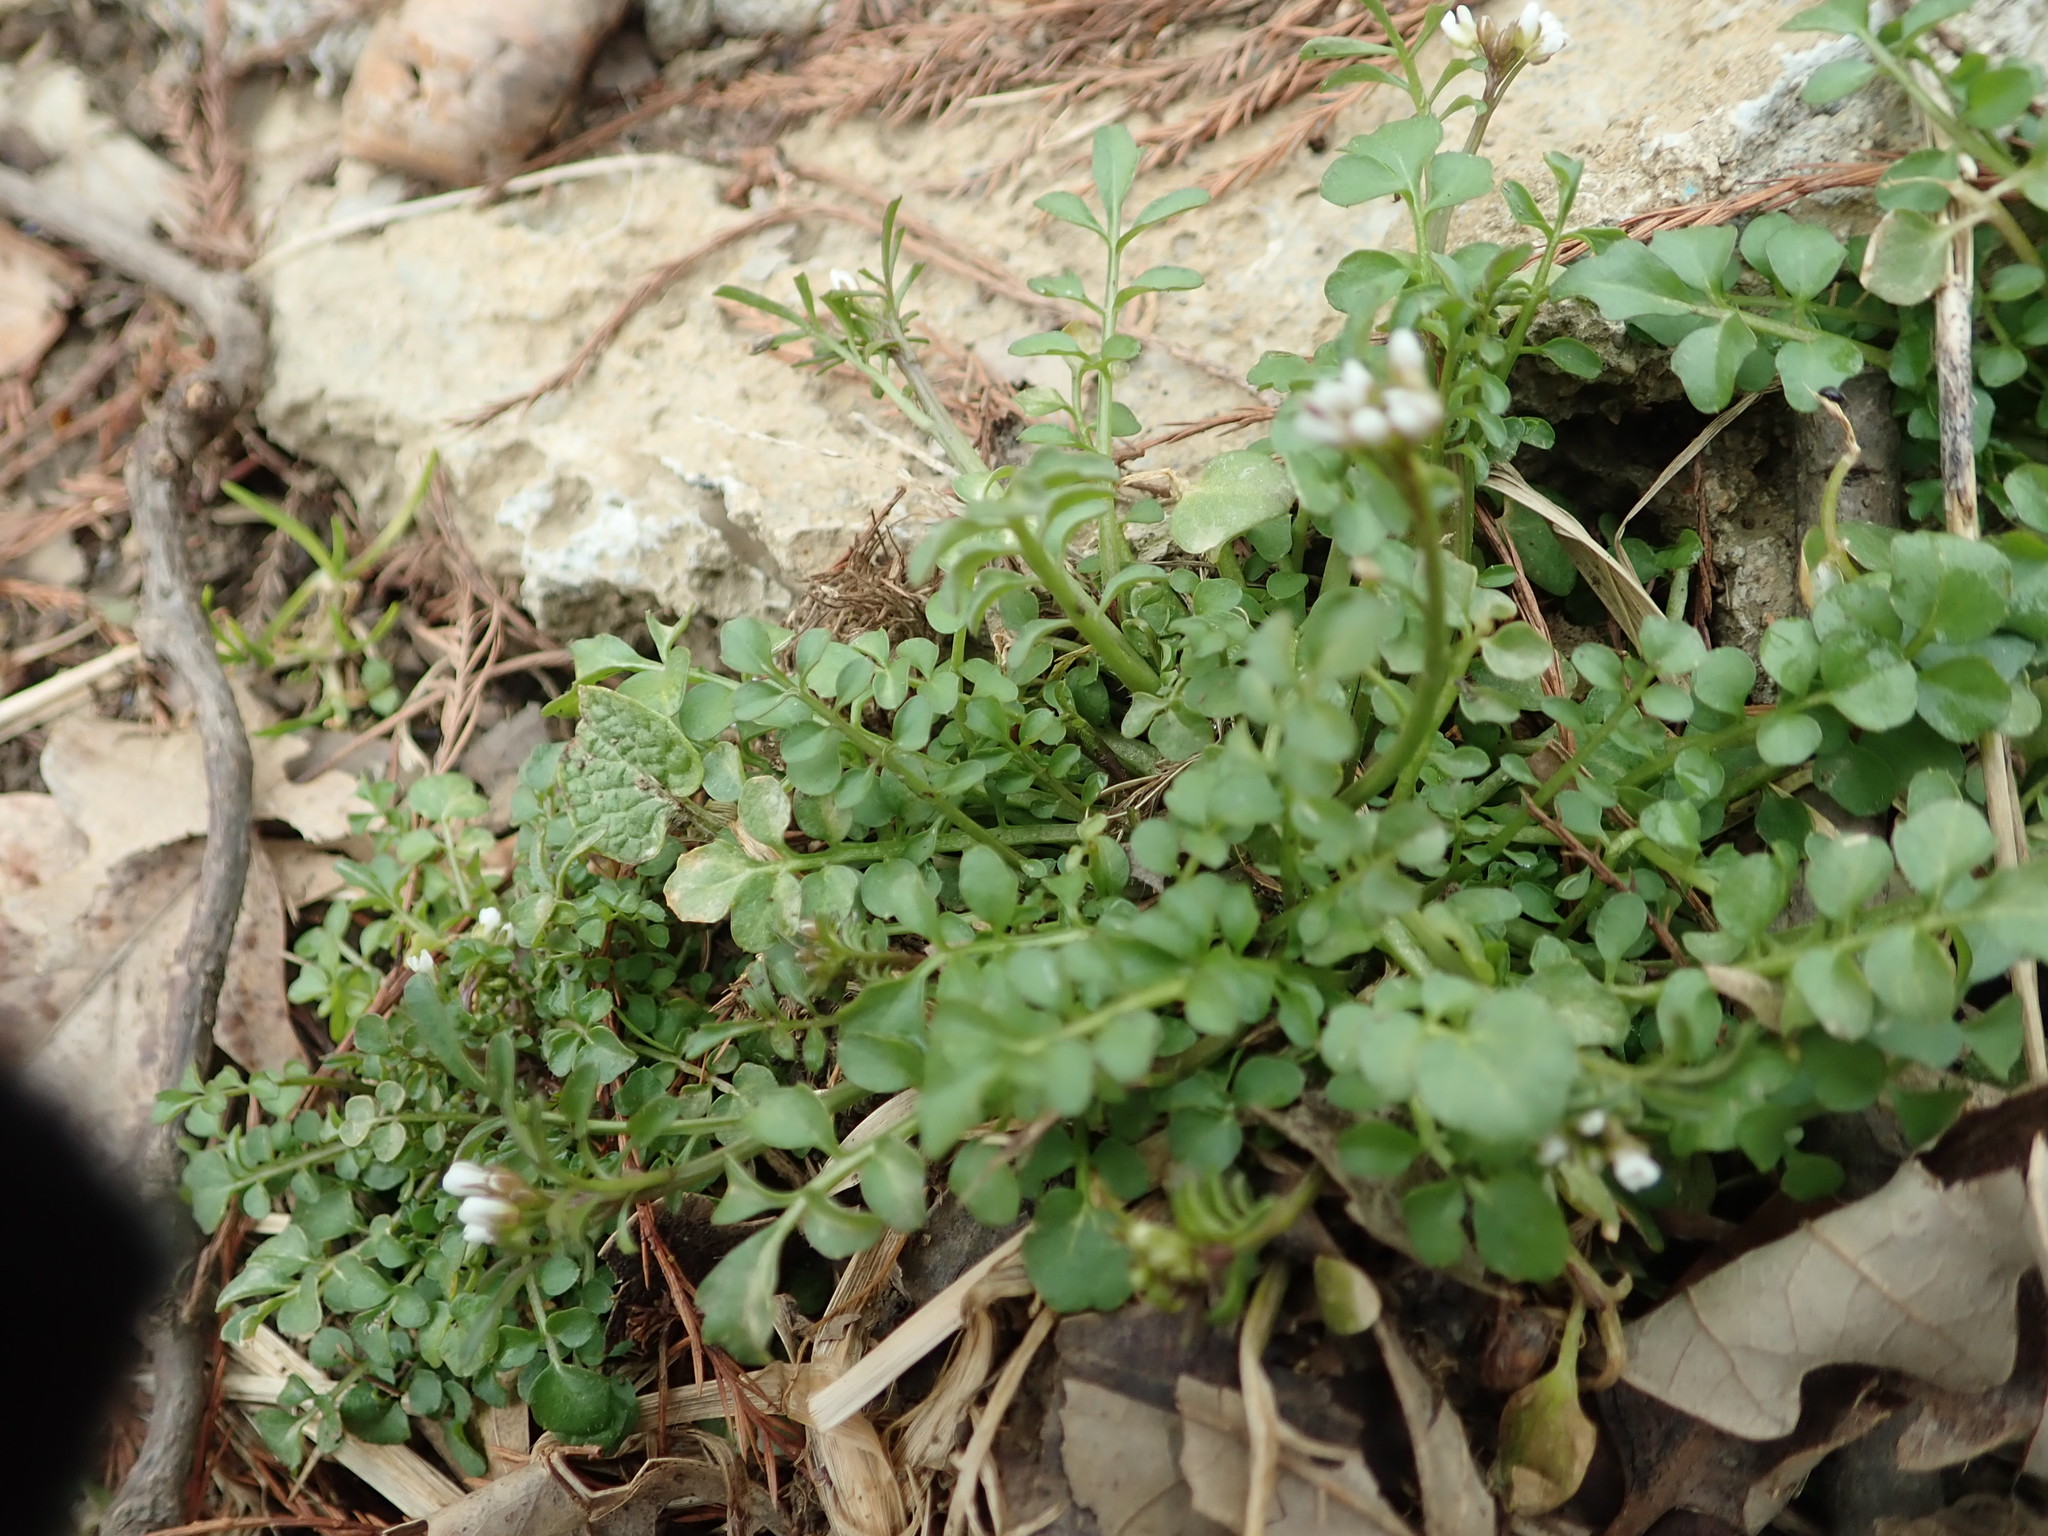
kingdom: Plantae
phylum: Tracheophyta
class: Magnoliopsida
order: Brassicales
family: Brassicaceae
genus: Cardamine
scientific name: Cardamine hirsuta
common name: Hairy bittercress
